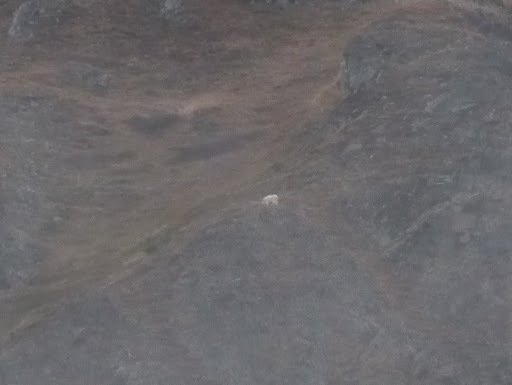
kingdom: Animalia
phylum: Chordata
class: Mammalia
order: Artiodactyla
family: Bovidae
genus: Oreamnos
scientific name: Oreamnos americanus
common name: Mountain goat
